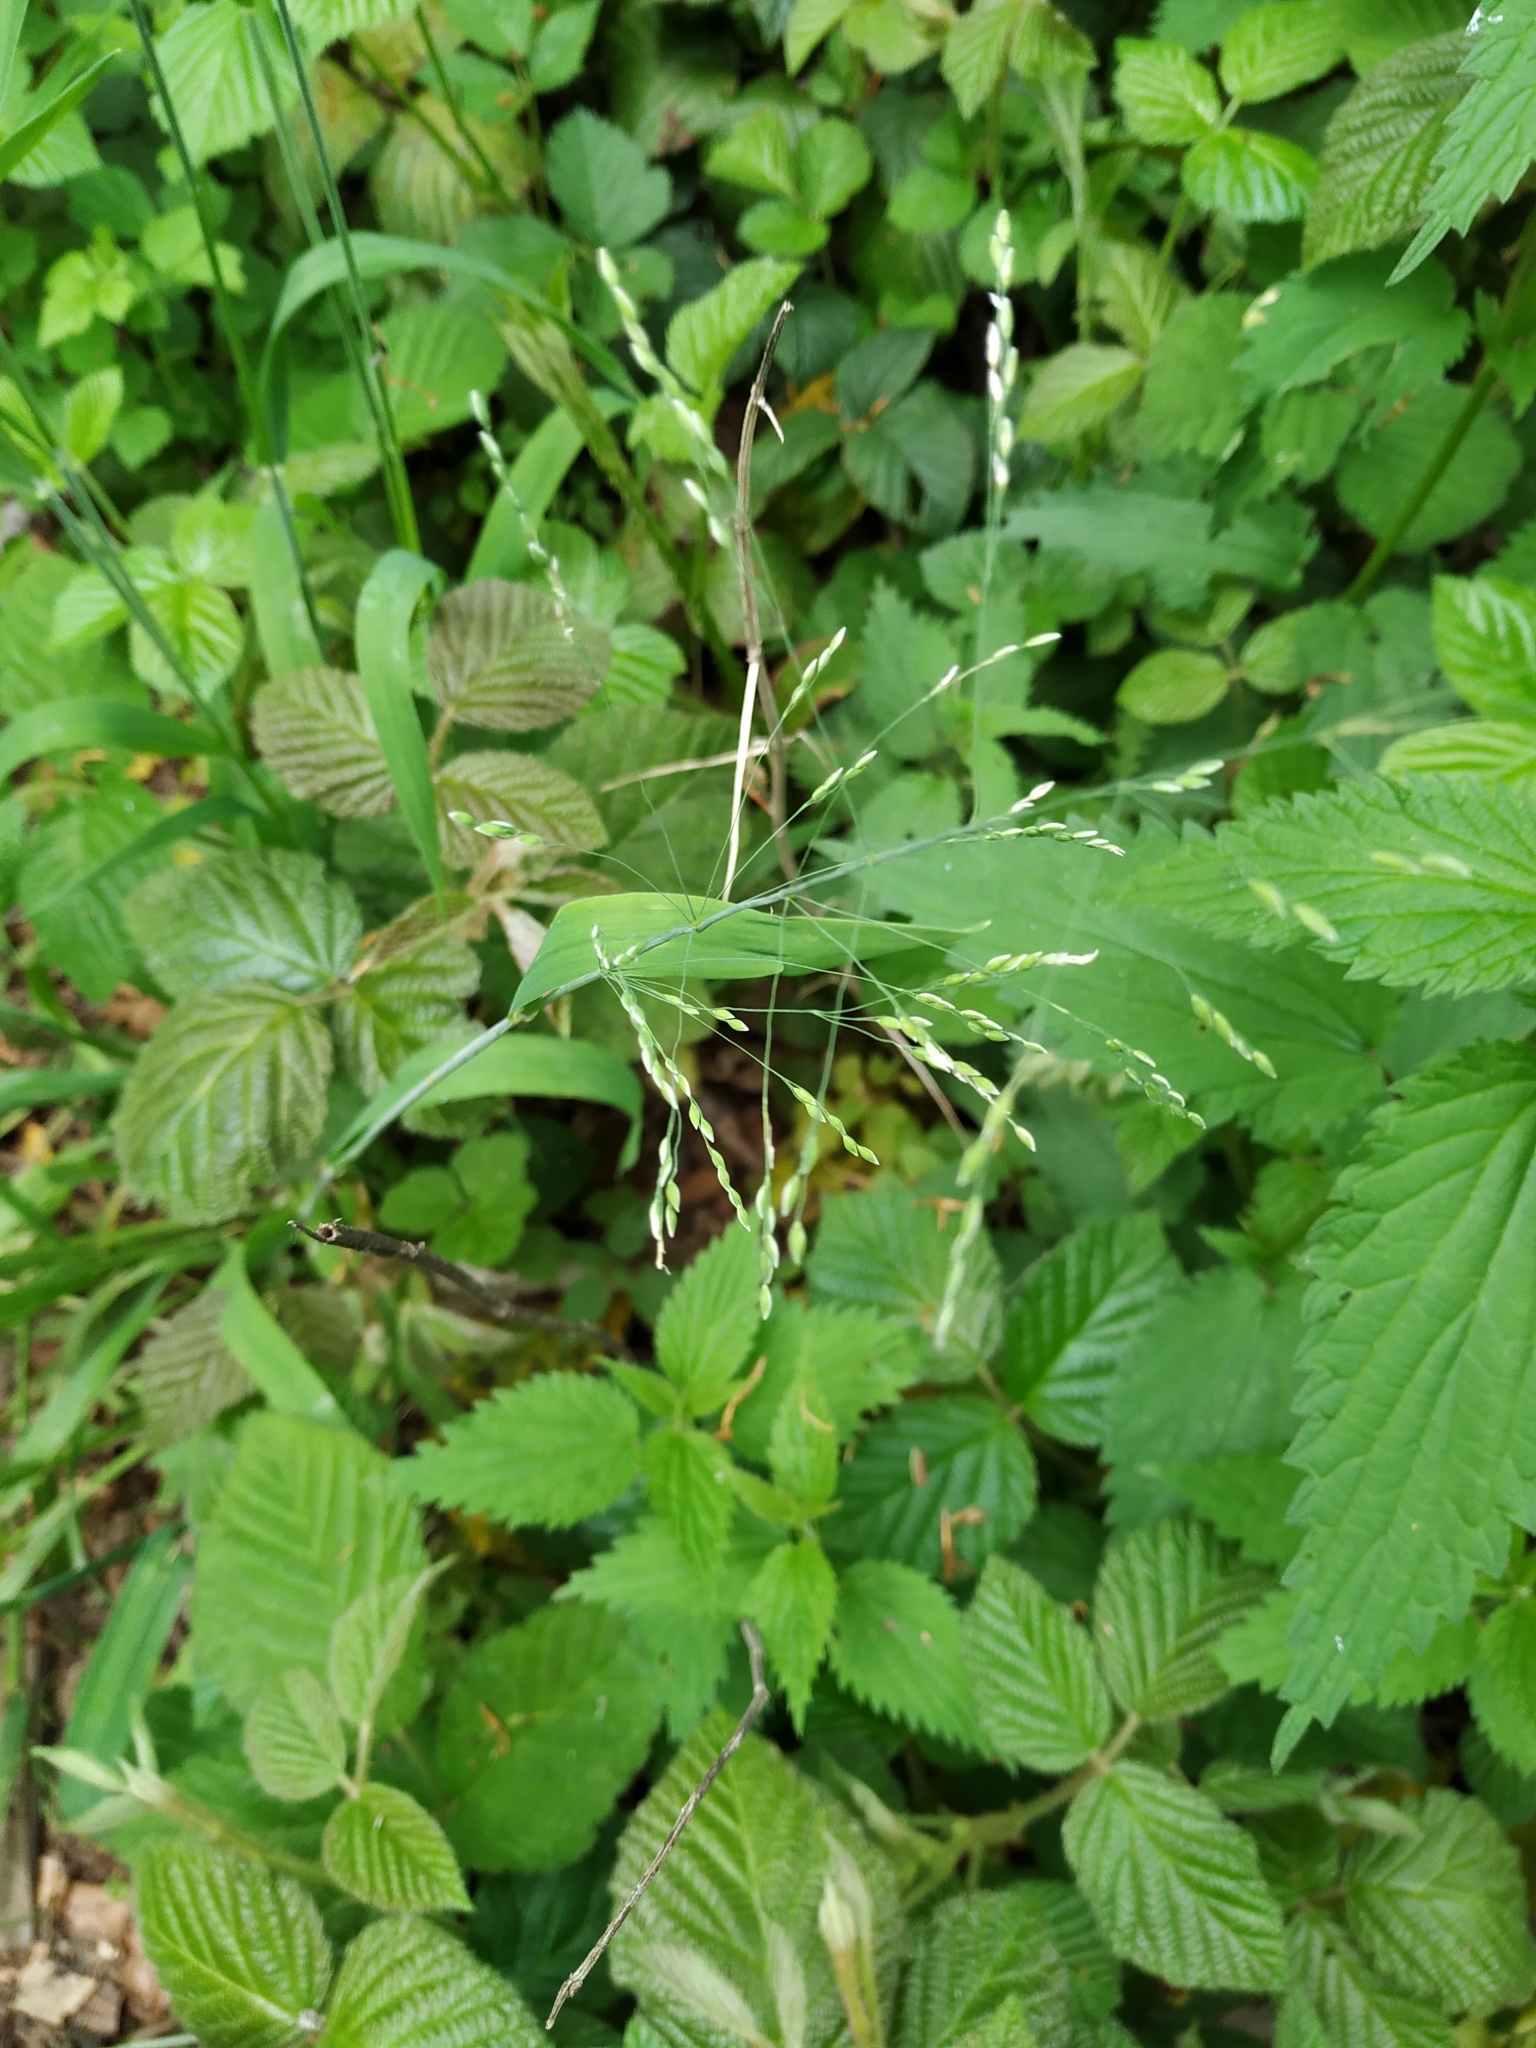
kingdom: Plantae
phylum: Tracheophyta
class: Liliopsida
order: Poales
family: Poaceae
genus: Milium
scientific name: Milium effusum
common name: Wood millet
